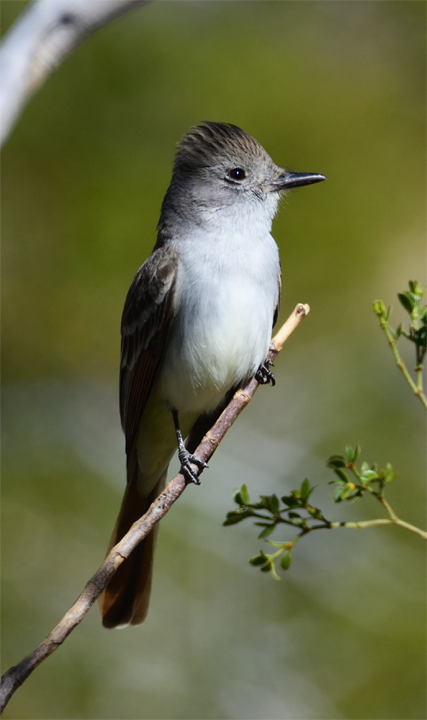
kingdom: Animalia
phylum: Chordata
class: Aves
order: Passeriformes
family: Tyrannidae
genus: Myiarchus
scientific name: Myiarchus cinerascens
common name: Ash-throated flycatcher
